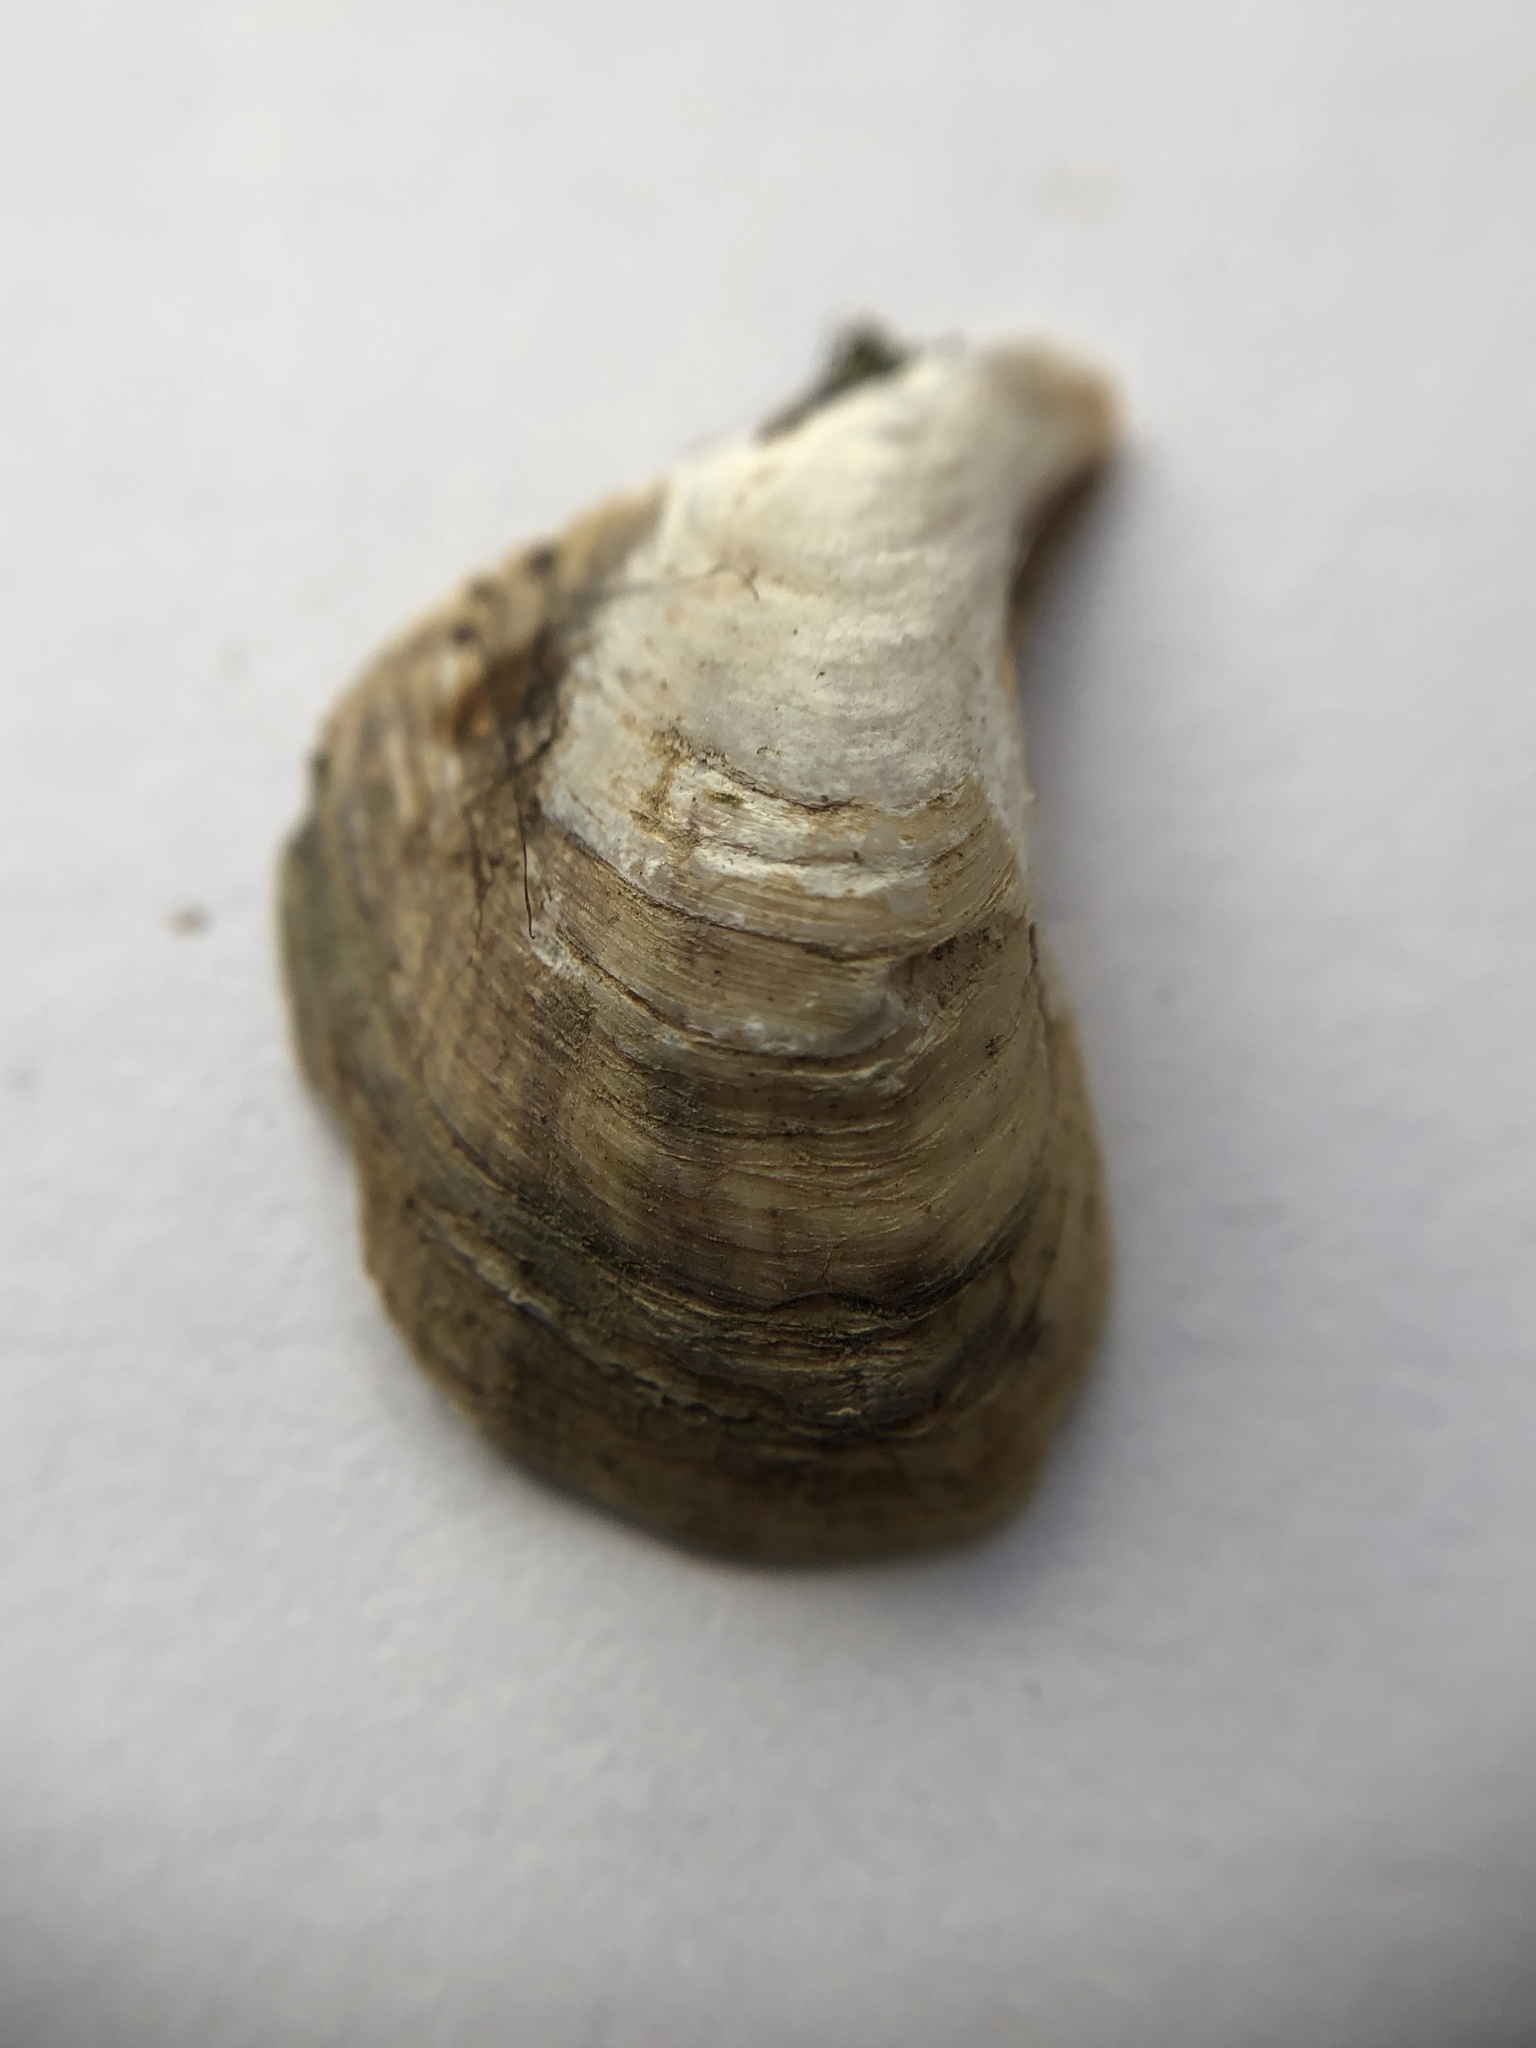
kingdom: Animalia
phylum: Mollusca
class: Bivalvia
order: Myida
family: Dreissenidae
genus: Dreissena
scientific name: Dreissena bugensis
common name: Quagga mussel
